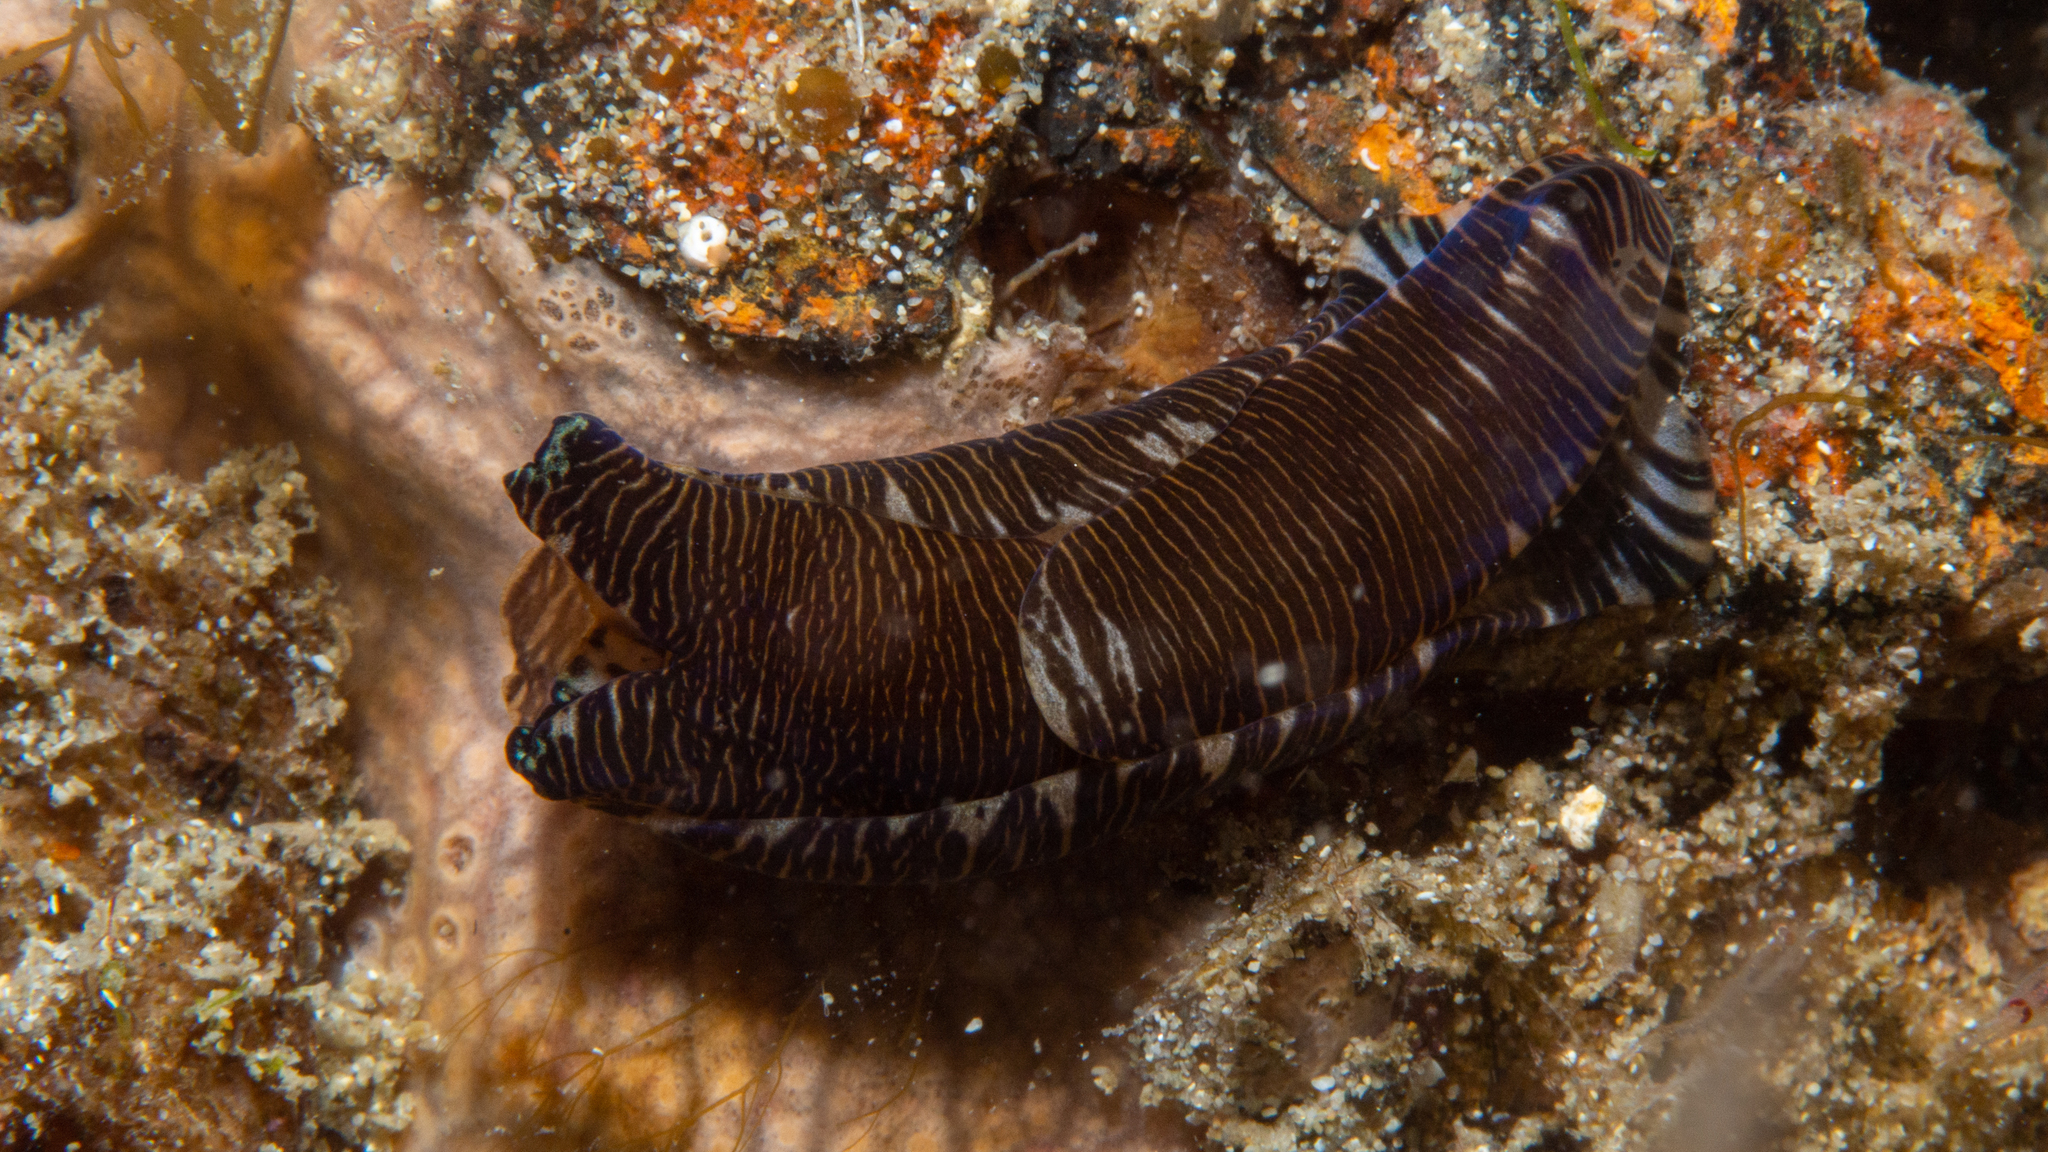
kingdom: Animalia
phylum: Mollusca
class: Gastropoda
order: Cephalaspidea
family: Aglajidae
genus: Tubulophilinopsis
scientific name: Tubulophilinopsis lineolata
